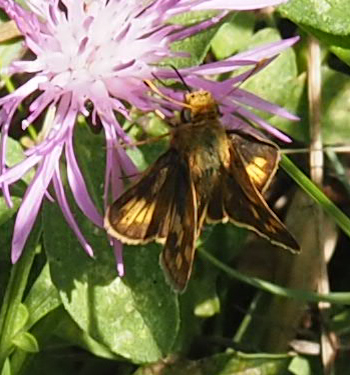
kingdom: Animalia
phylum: Arthropoda
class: Insecta
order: Lepidoptera
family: Hesperiidae
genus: Polites
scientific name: Polites coras
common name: Peck's skipper
